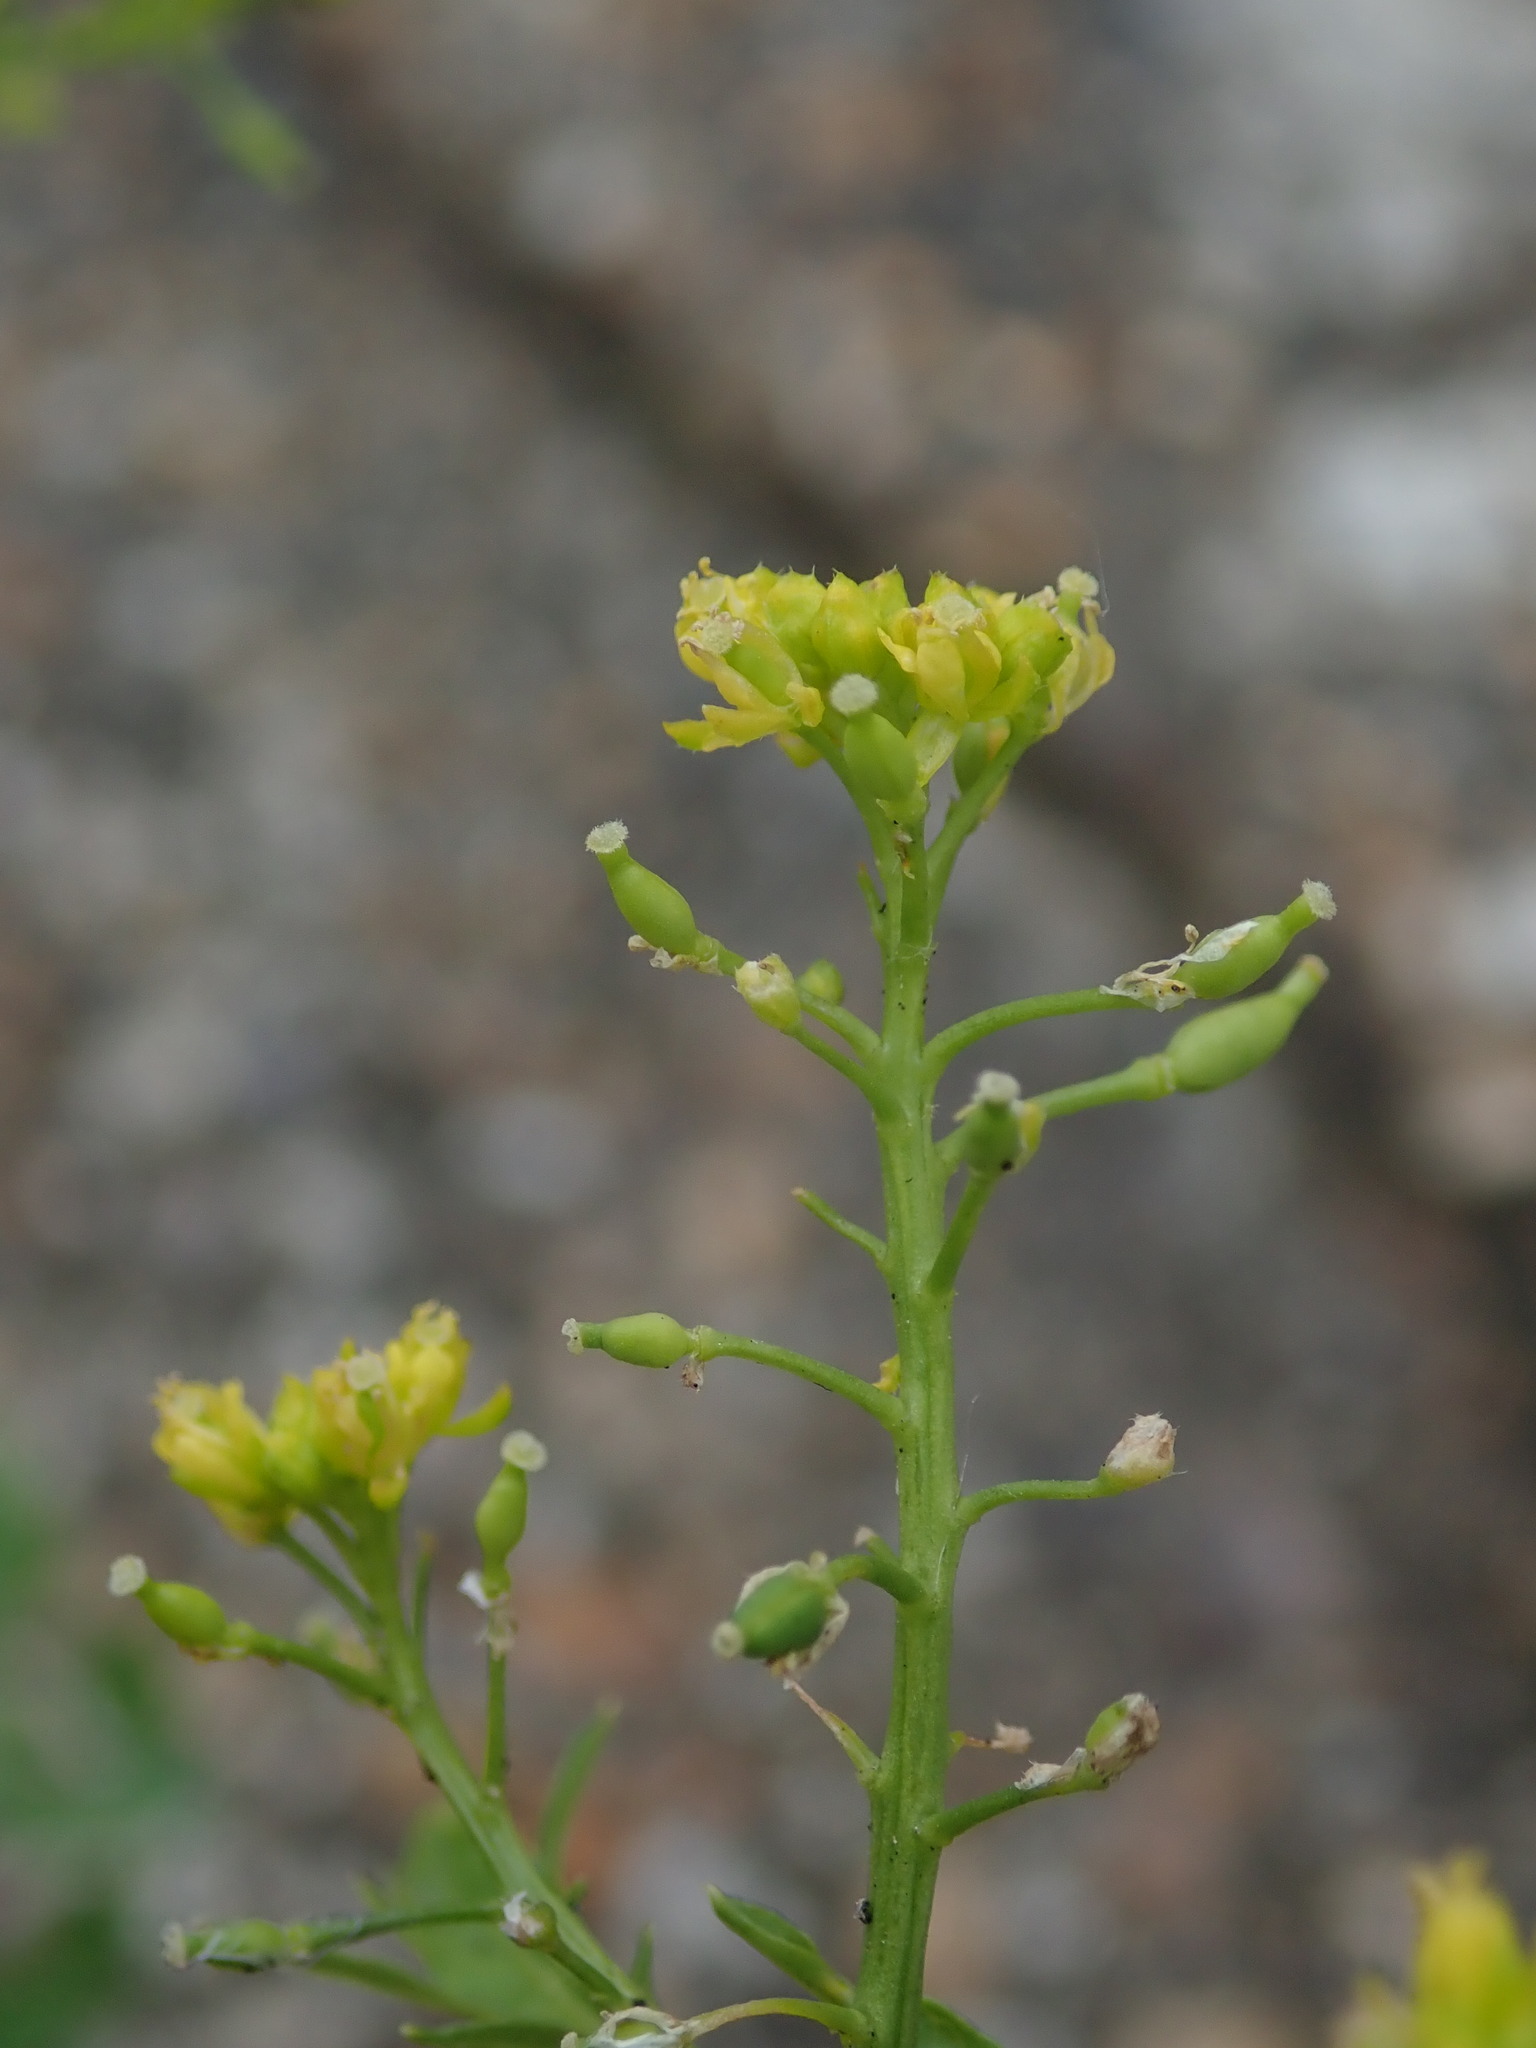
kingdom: Plantae
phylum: Tracheophyta
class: Magnoliopsida
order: Brassicales
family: Brassicaceae
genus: Rorippa
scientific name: Rorippa palustris
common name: Marsh yellow-cress
